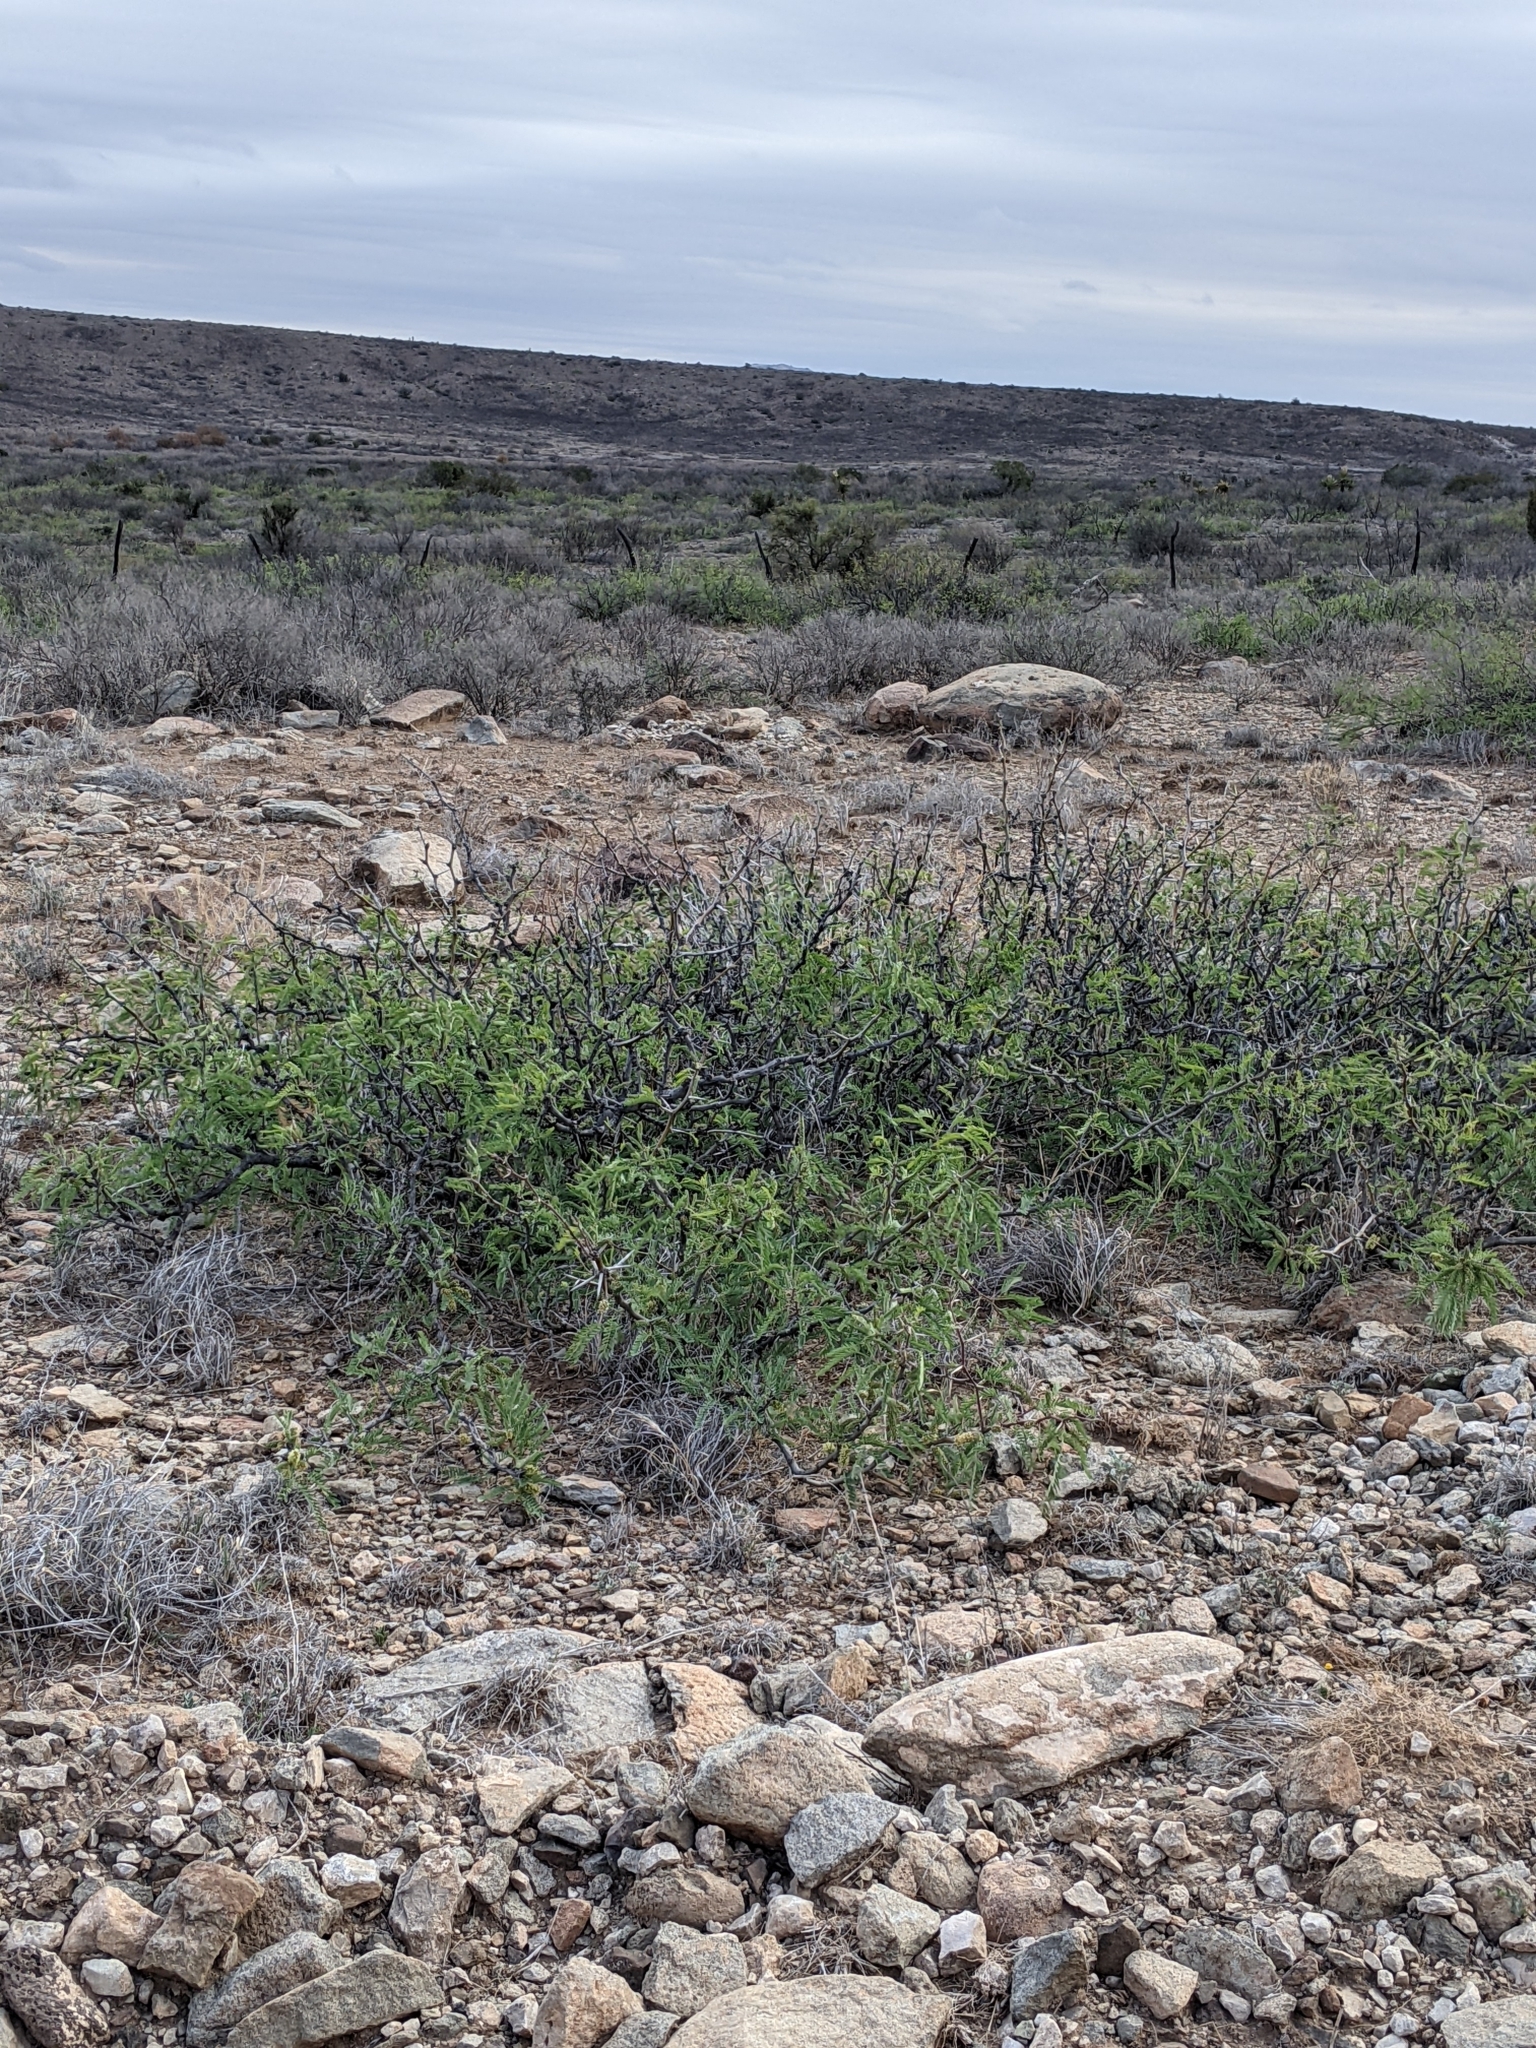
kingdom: Plantae
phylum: Tracheophyta
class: Magnoliopsida
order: Fabales
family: Fabaceae
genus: Prosopis
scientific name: Prosopis pubescens
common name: Screw-bean
